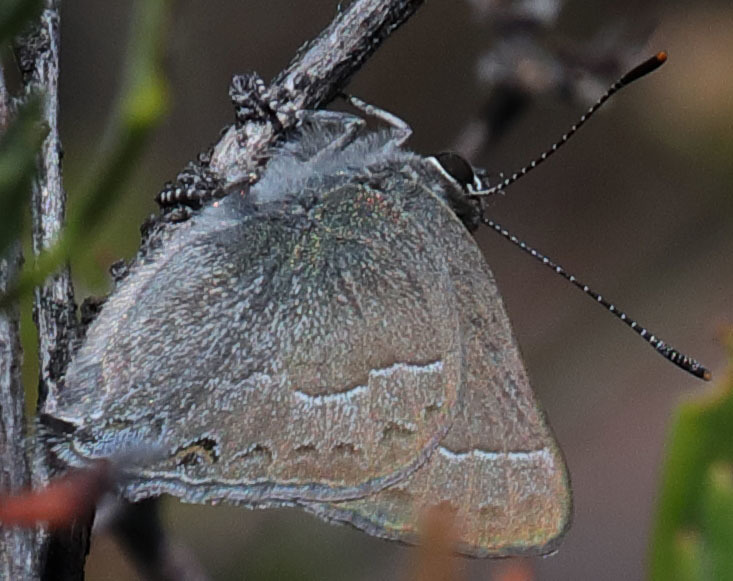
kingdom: Animalia
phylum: Arthropoda
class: Insecta
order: Lepidoptera
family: Lycaenidae
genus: Thecla
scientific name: Thecla tetra
